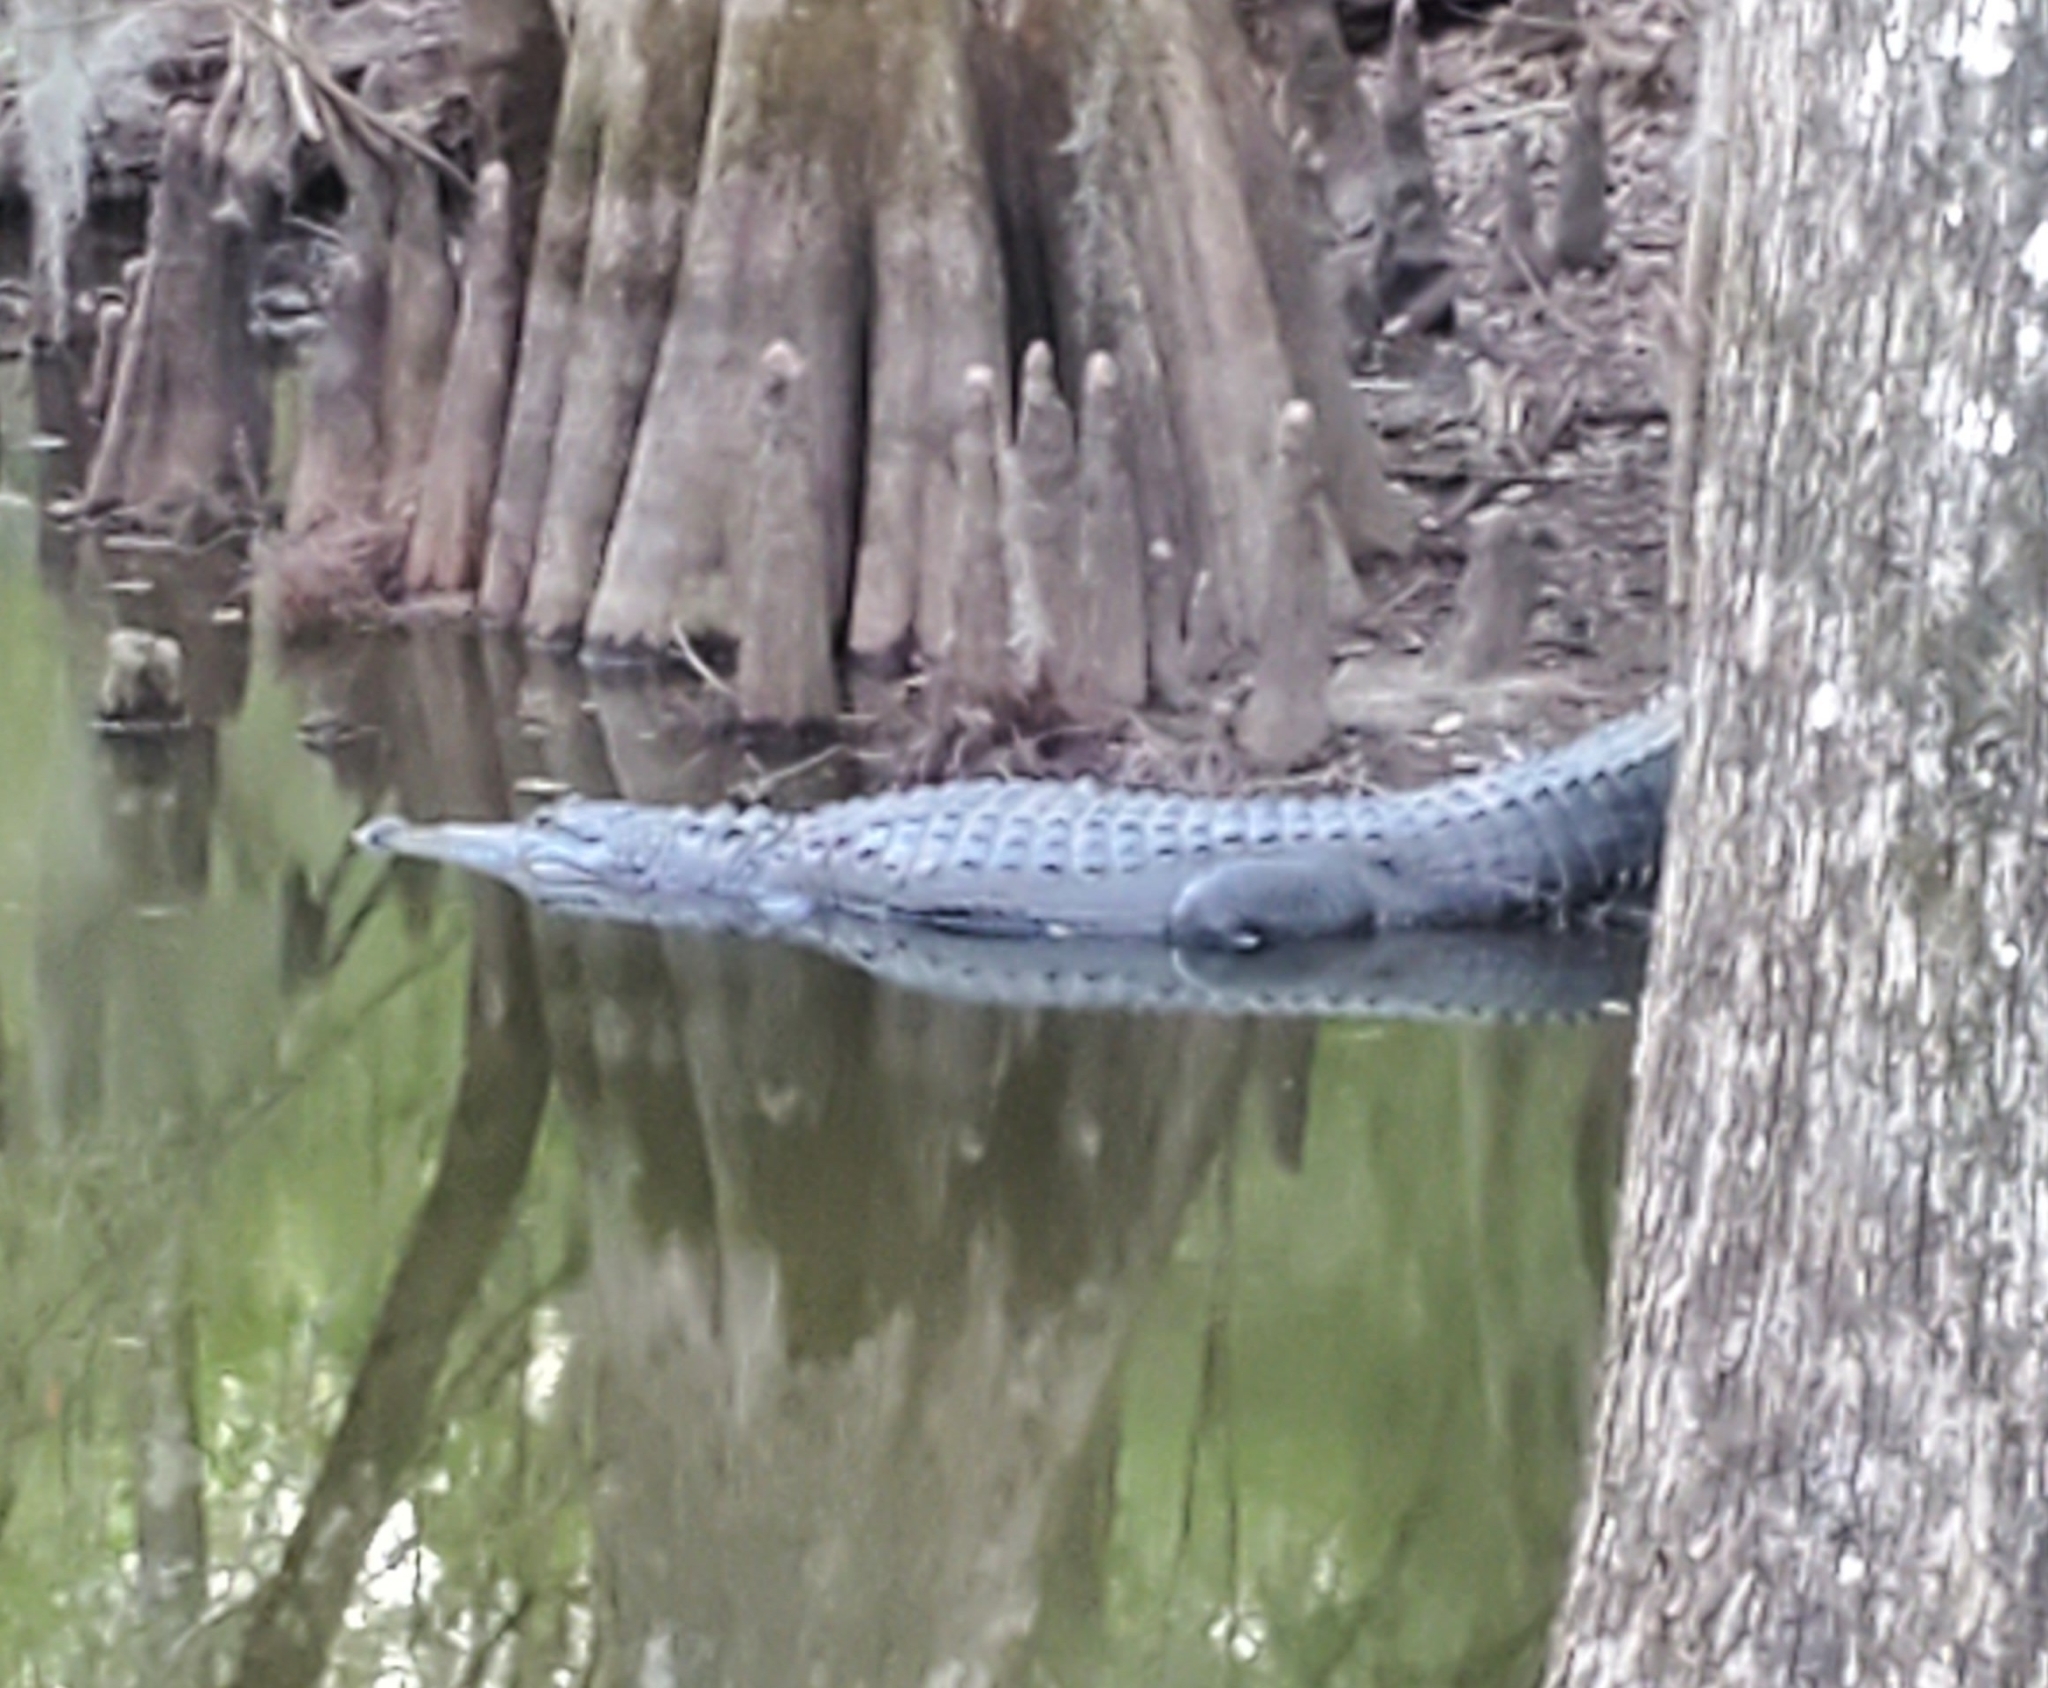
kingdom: Animalia
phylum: Chordata
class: Crocodylia
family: Alligatoridae
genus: Alligator
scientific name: Alligator mississippiensis
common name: American alligator
